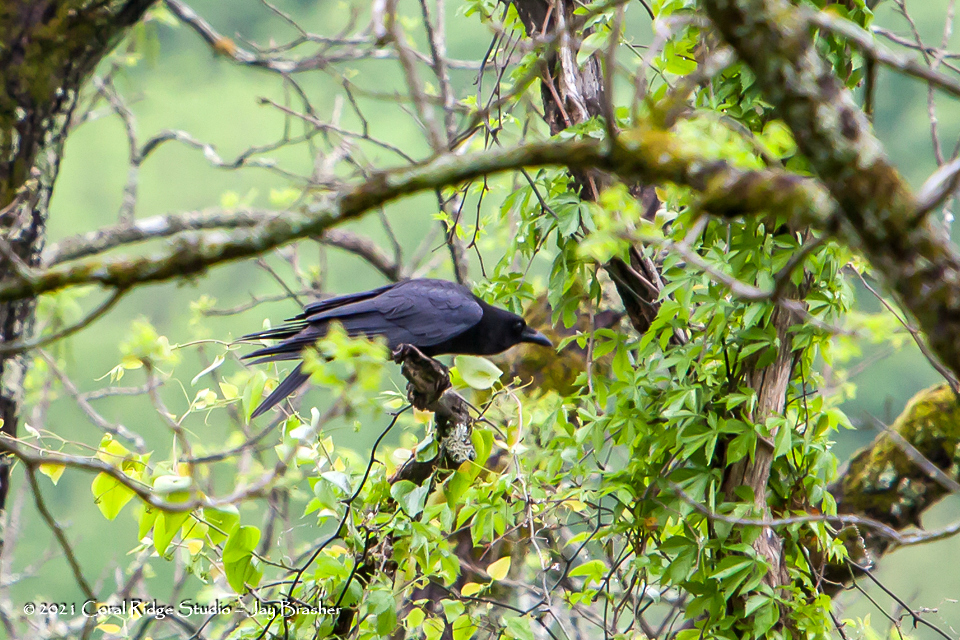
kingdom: Animalia
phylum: Chordata
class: Aves
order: Passeriformes
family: Corvidae
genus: Corvus
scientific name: Corvus brachyrhynchos
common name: American crow
